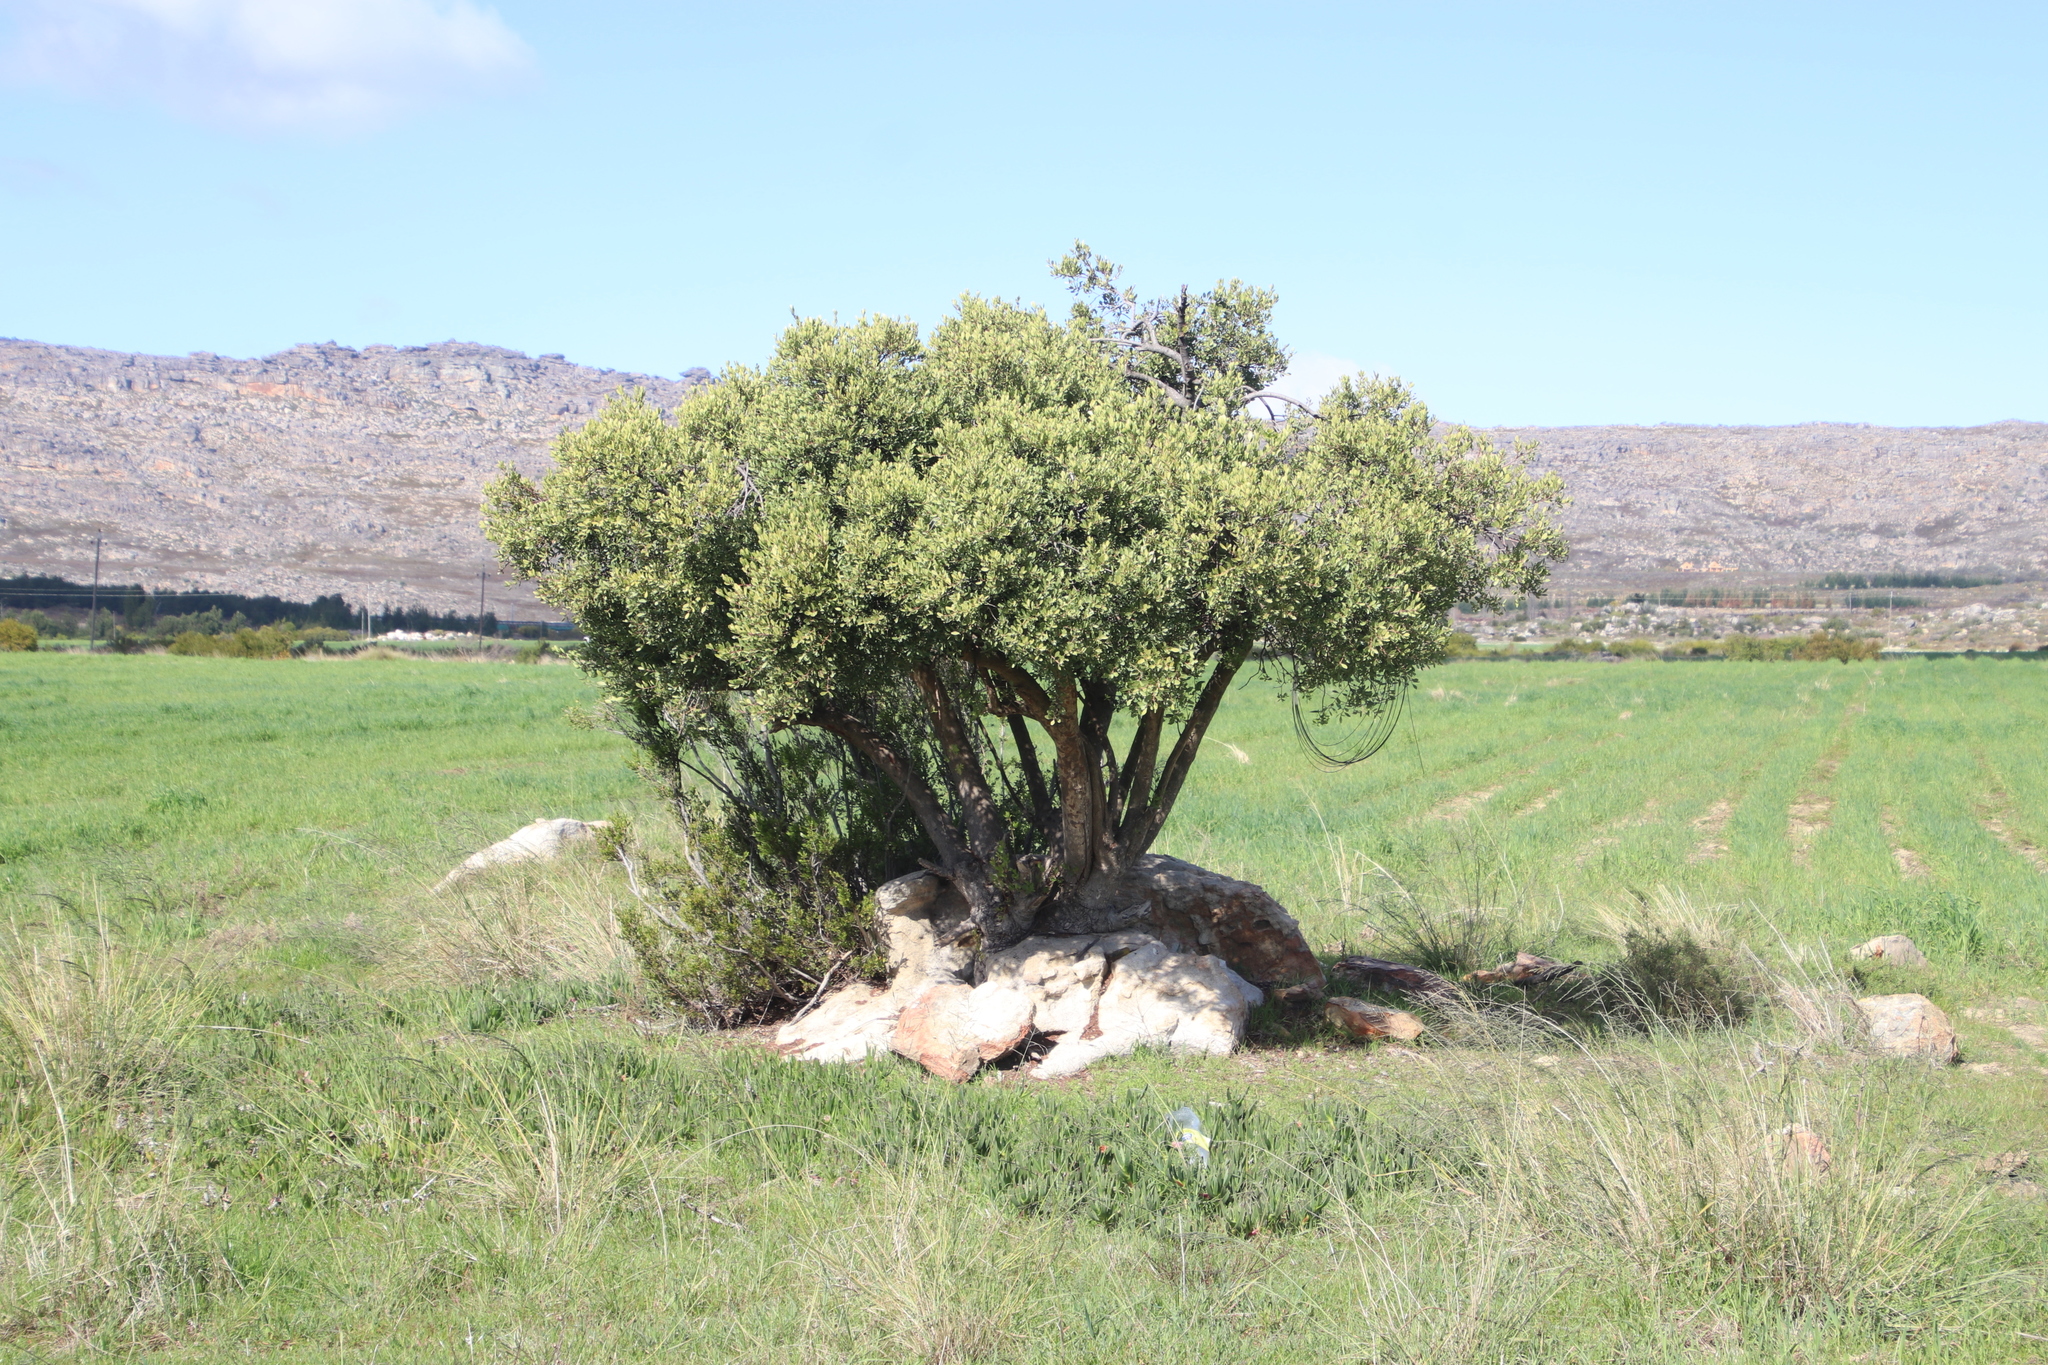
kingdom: Plantae
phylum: Tracheophyta
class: Magnoliopsida
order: Celastrales
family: Celastraceae
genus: Gymnosporia
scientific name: Gymnosporia laurina
